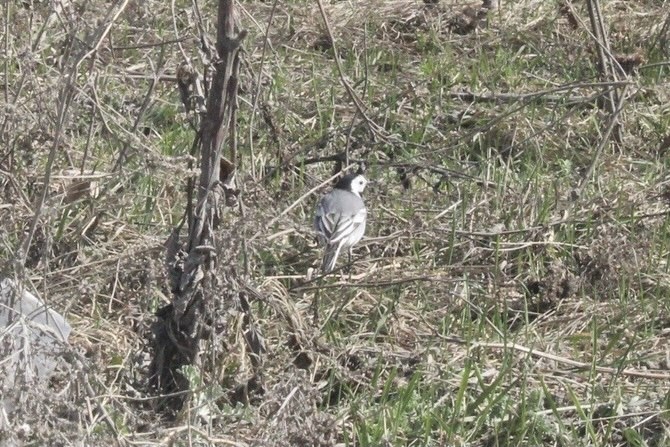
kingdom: Animalia
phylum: Chordata
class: Aves
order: Passeriformes
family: Motacillidae
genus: Motacilla
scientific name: Motacilla alba
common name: White wagtail
